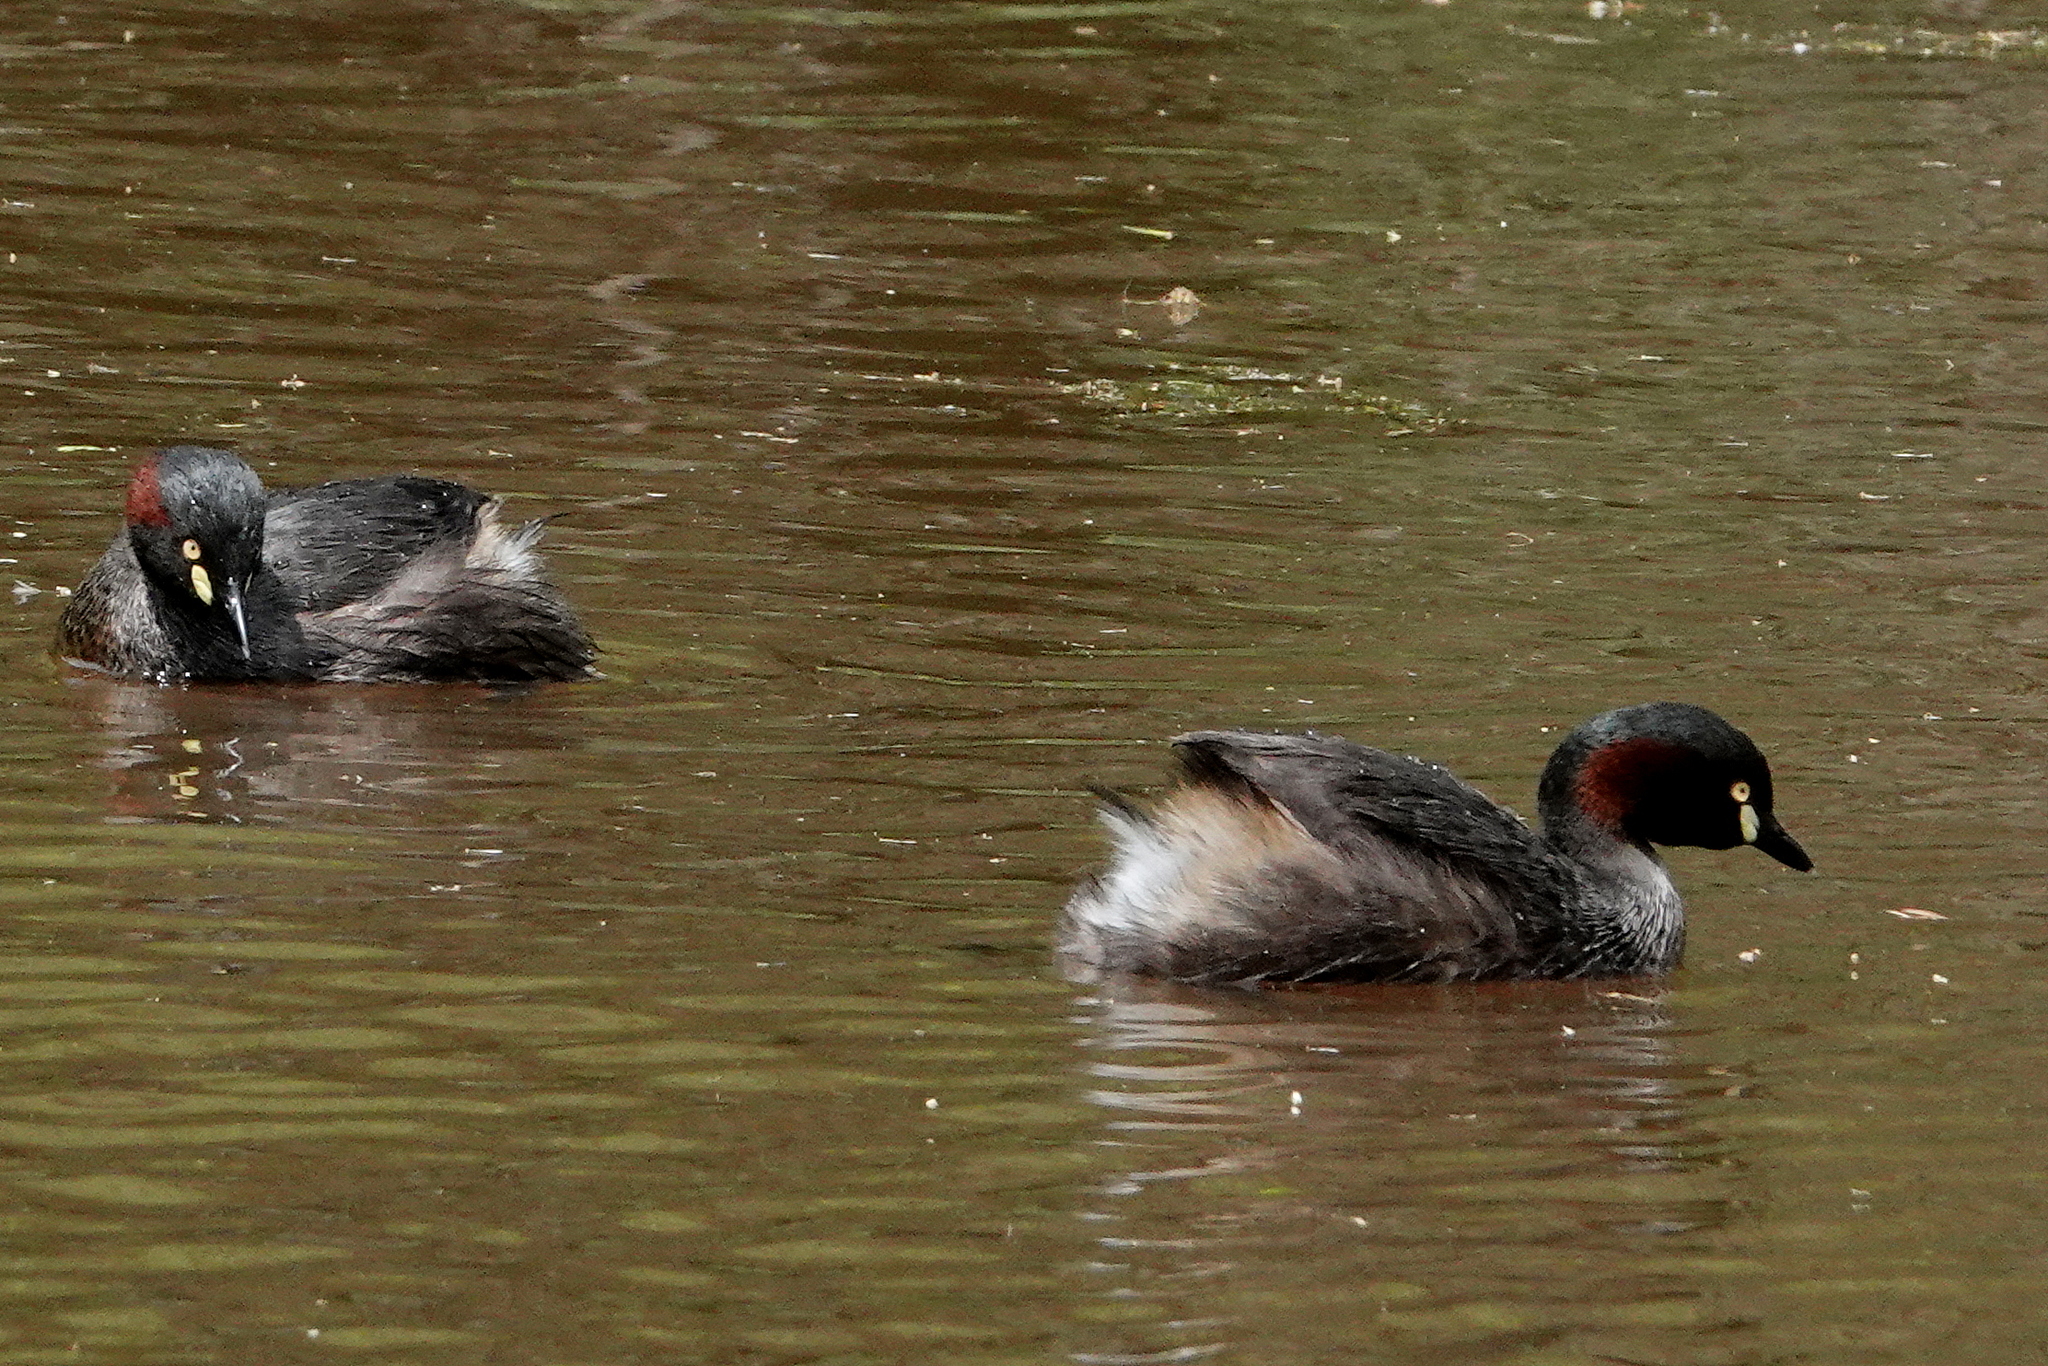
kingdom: Animalia
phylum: Chordata
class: Aves
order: Podicipediformes
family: Podicipedidae
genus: Tachybaptus
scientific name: Tachybaptus novaehollandiae
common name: Australasian grebe
